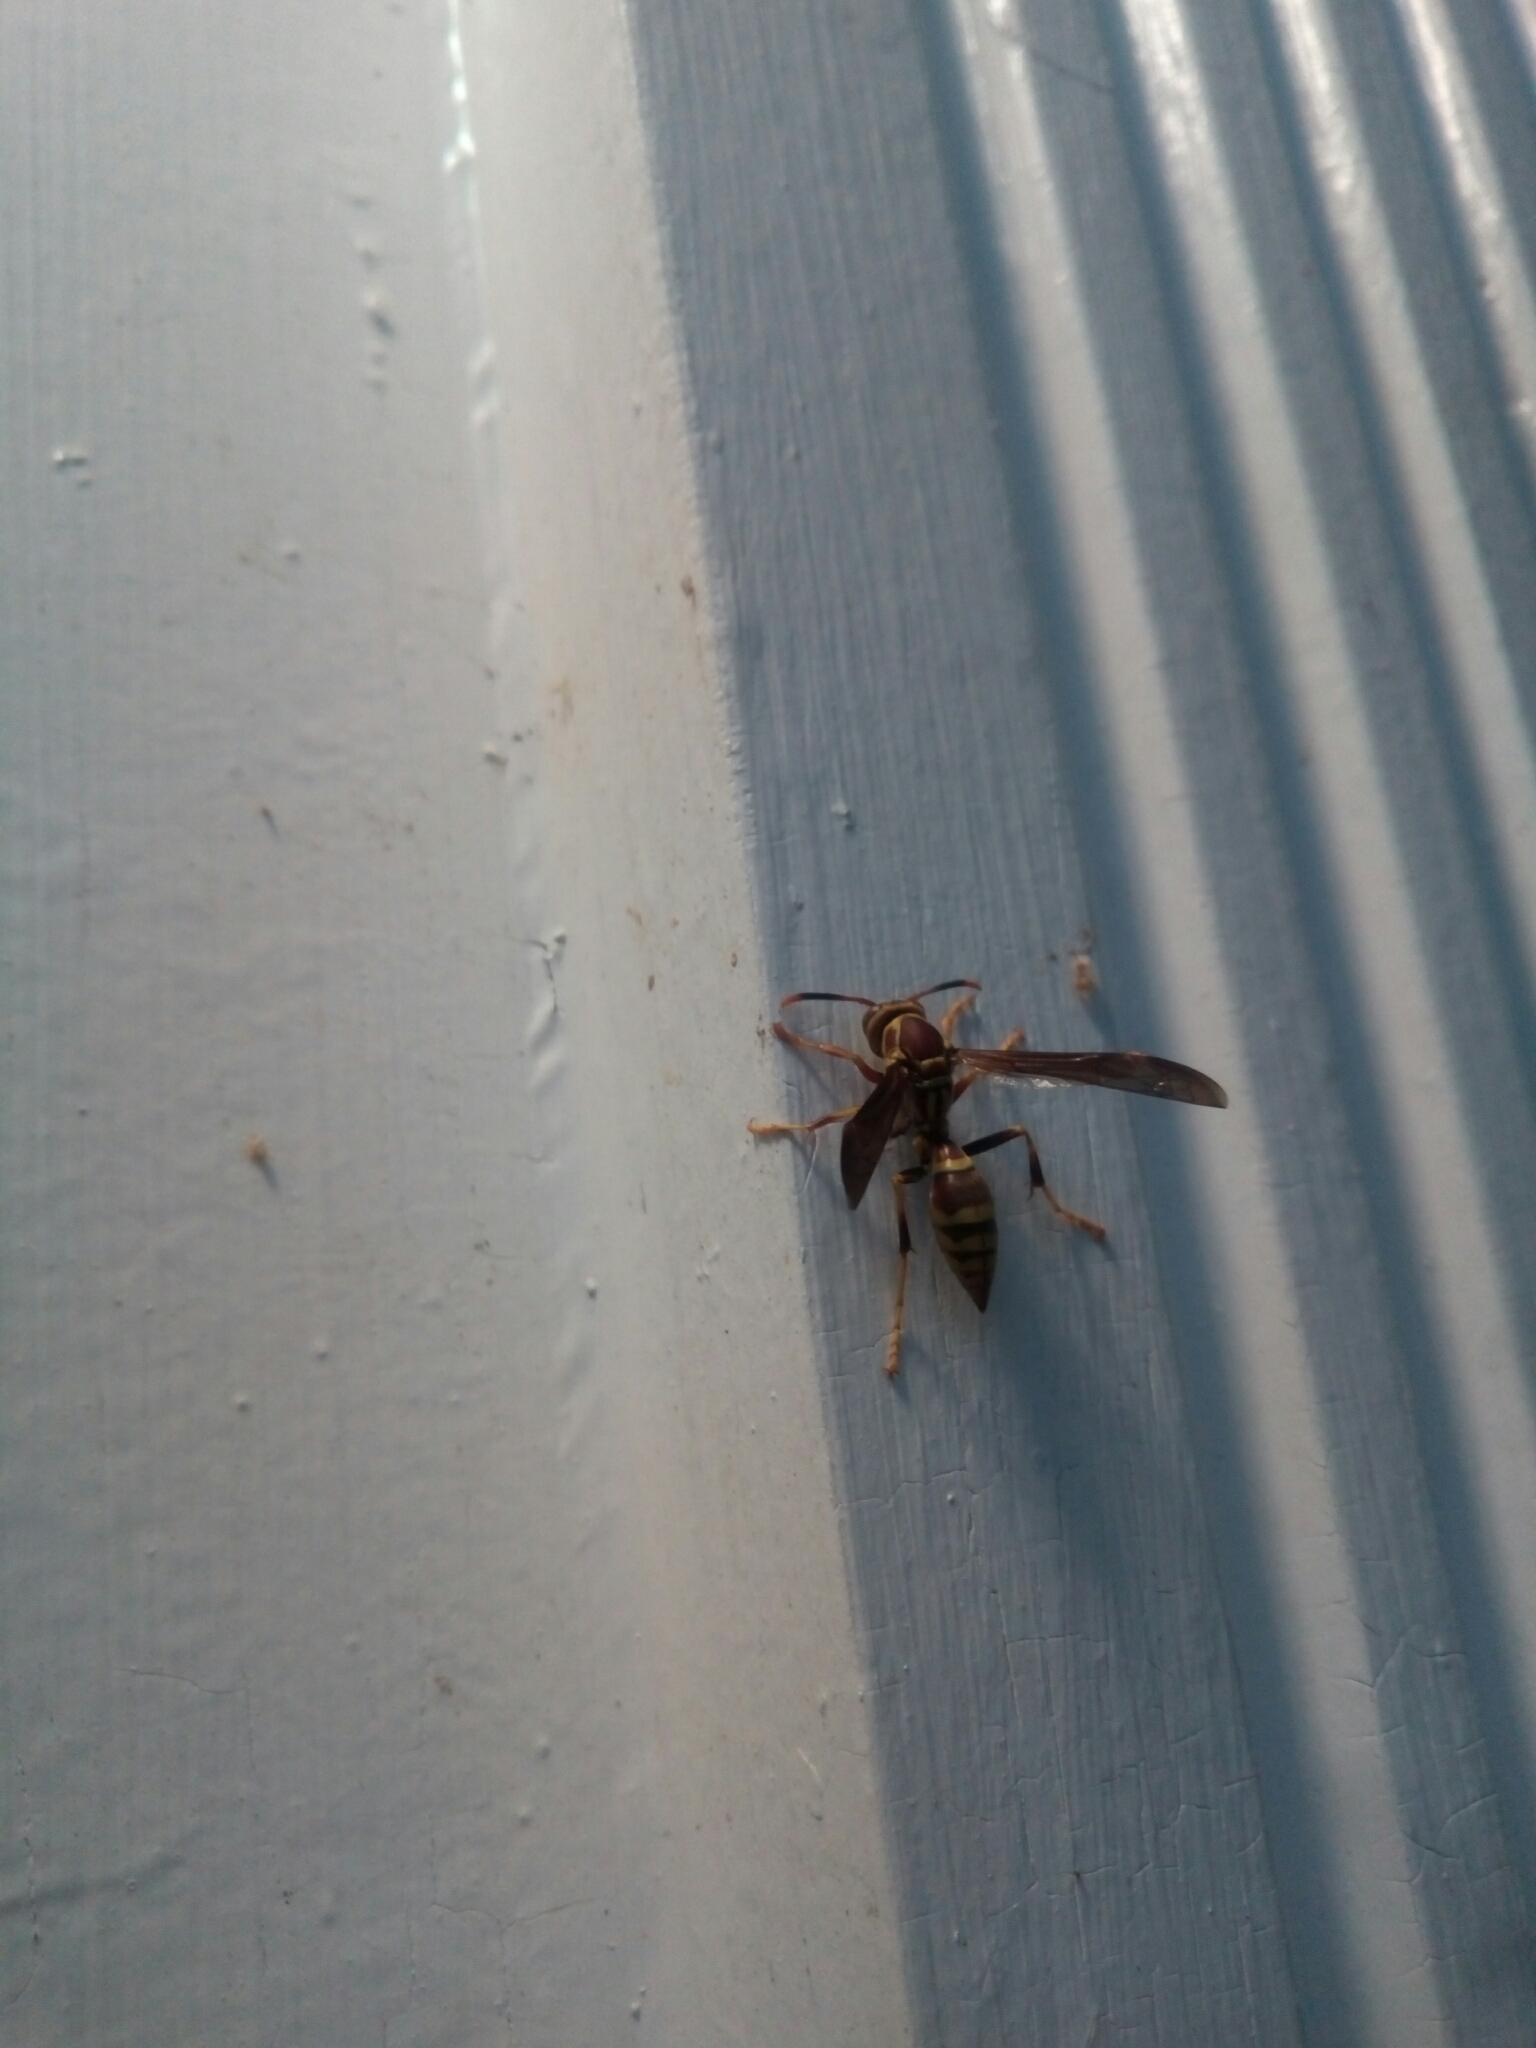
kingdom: Animalia
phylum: Arthropoda
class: Insecta
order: Hymenoptera
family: Eumenidae
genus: Polistes
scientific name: Polistes exclamans
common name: Paper wasp
